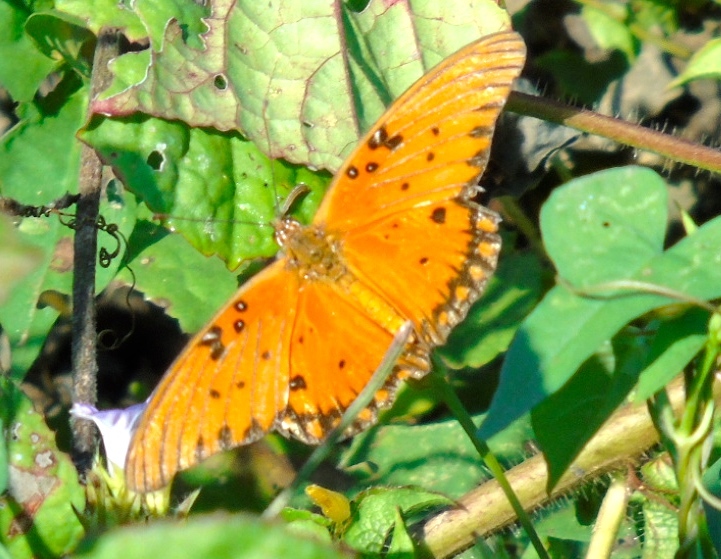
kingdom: Animalia
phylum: Arthropoda
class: Insecta
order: Lepidoptera
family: Nymphalidae
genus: Dione
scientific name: Dione vanillae
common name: Gulf fritillary
